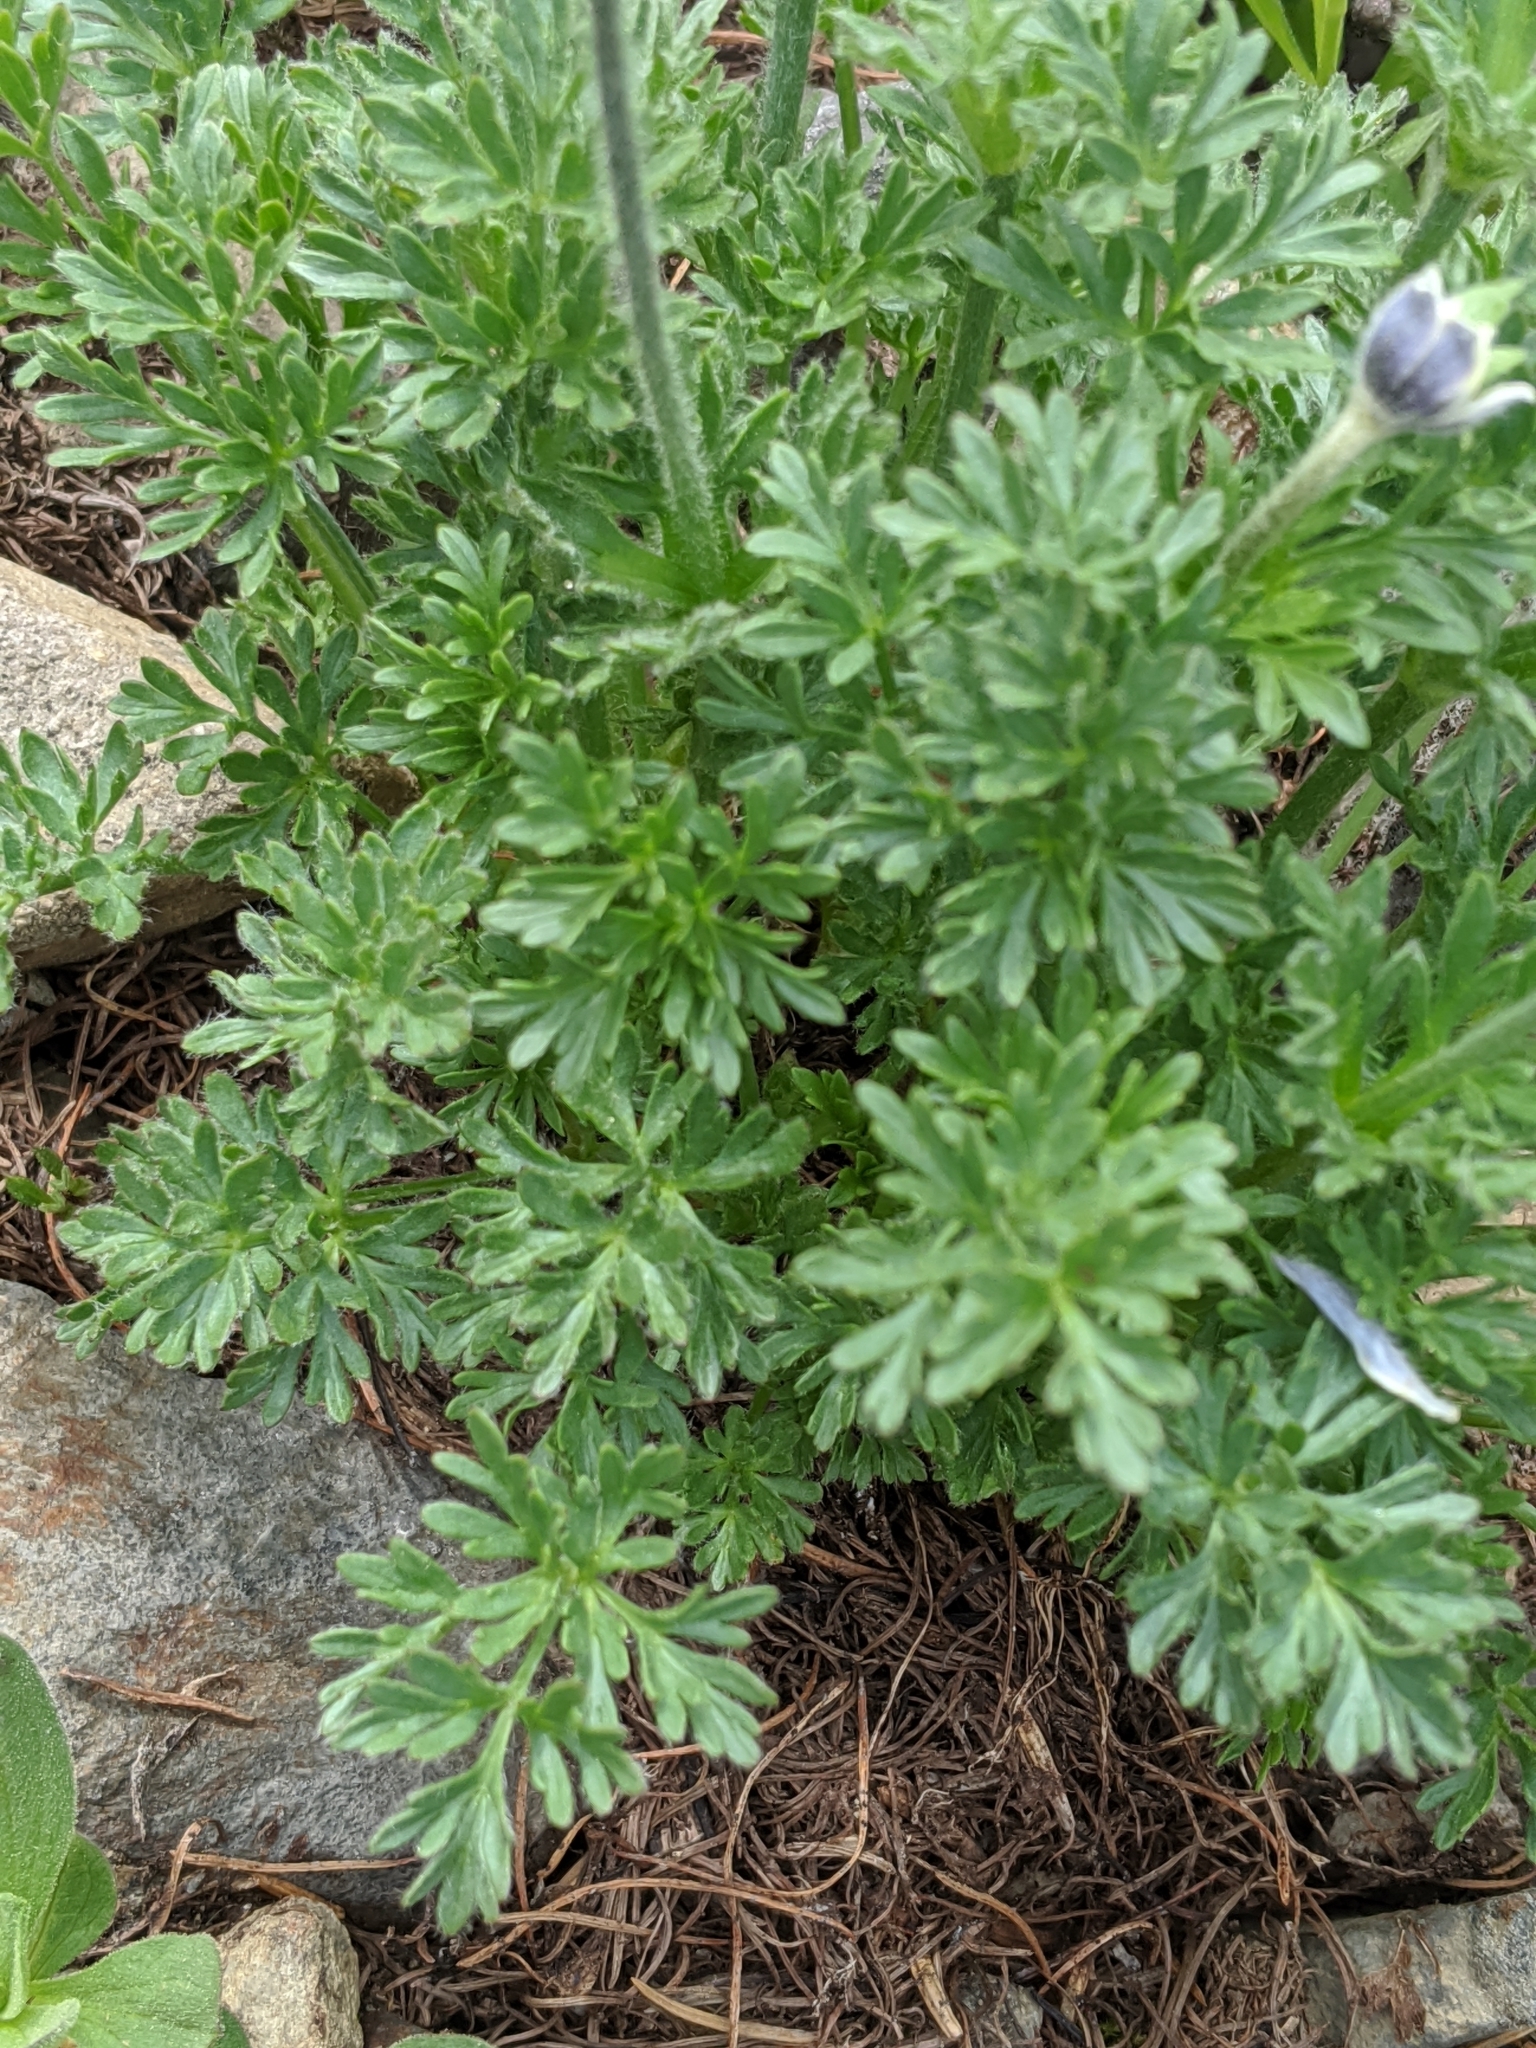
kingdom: Plantae
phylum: Tracheophyta
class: Magnoliopsida
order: Ranunculales
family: Ranunculaceae
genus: Anemone
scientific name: Anemone drummondii
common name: Drummond's anemone
